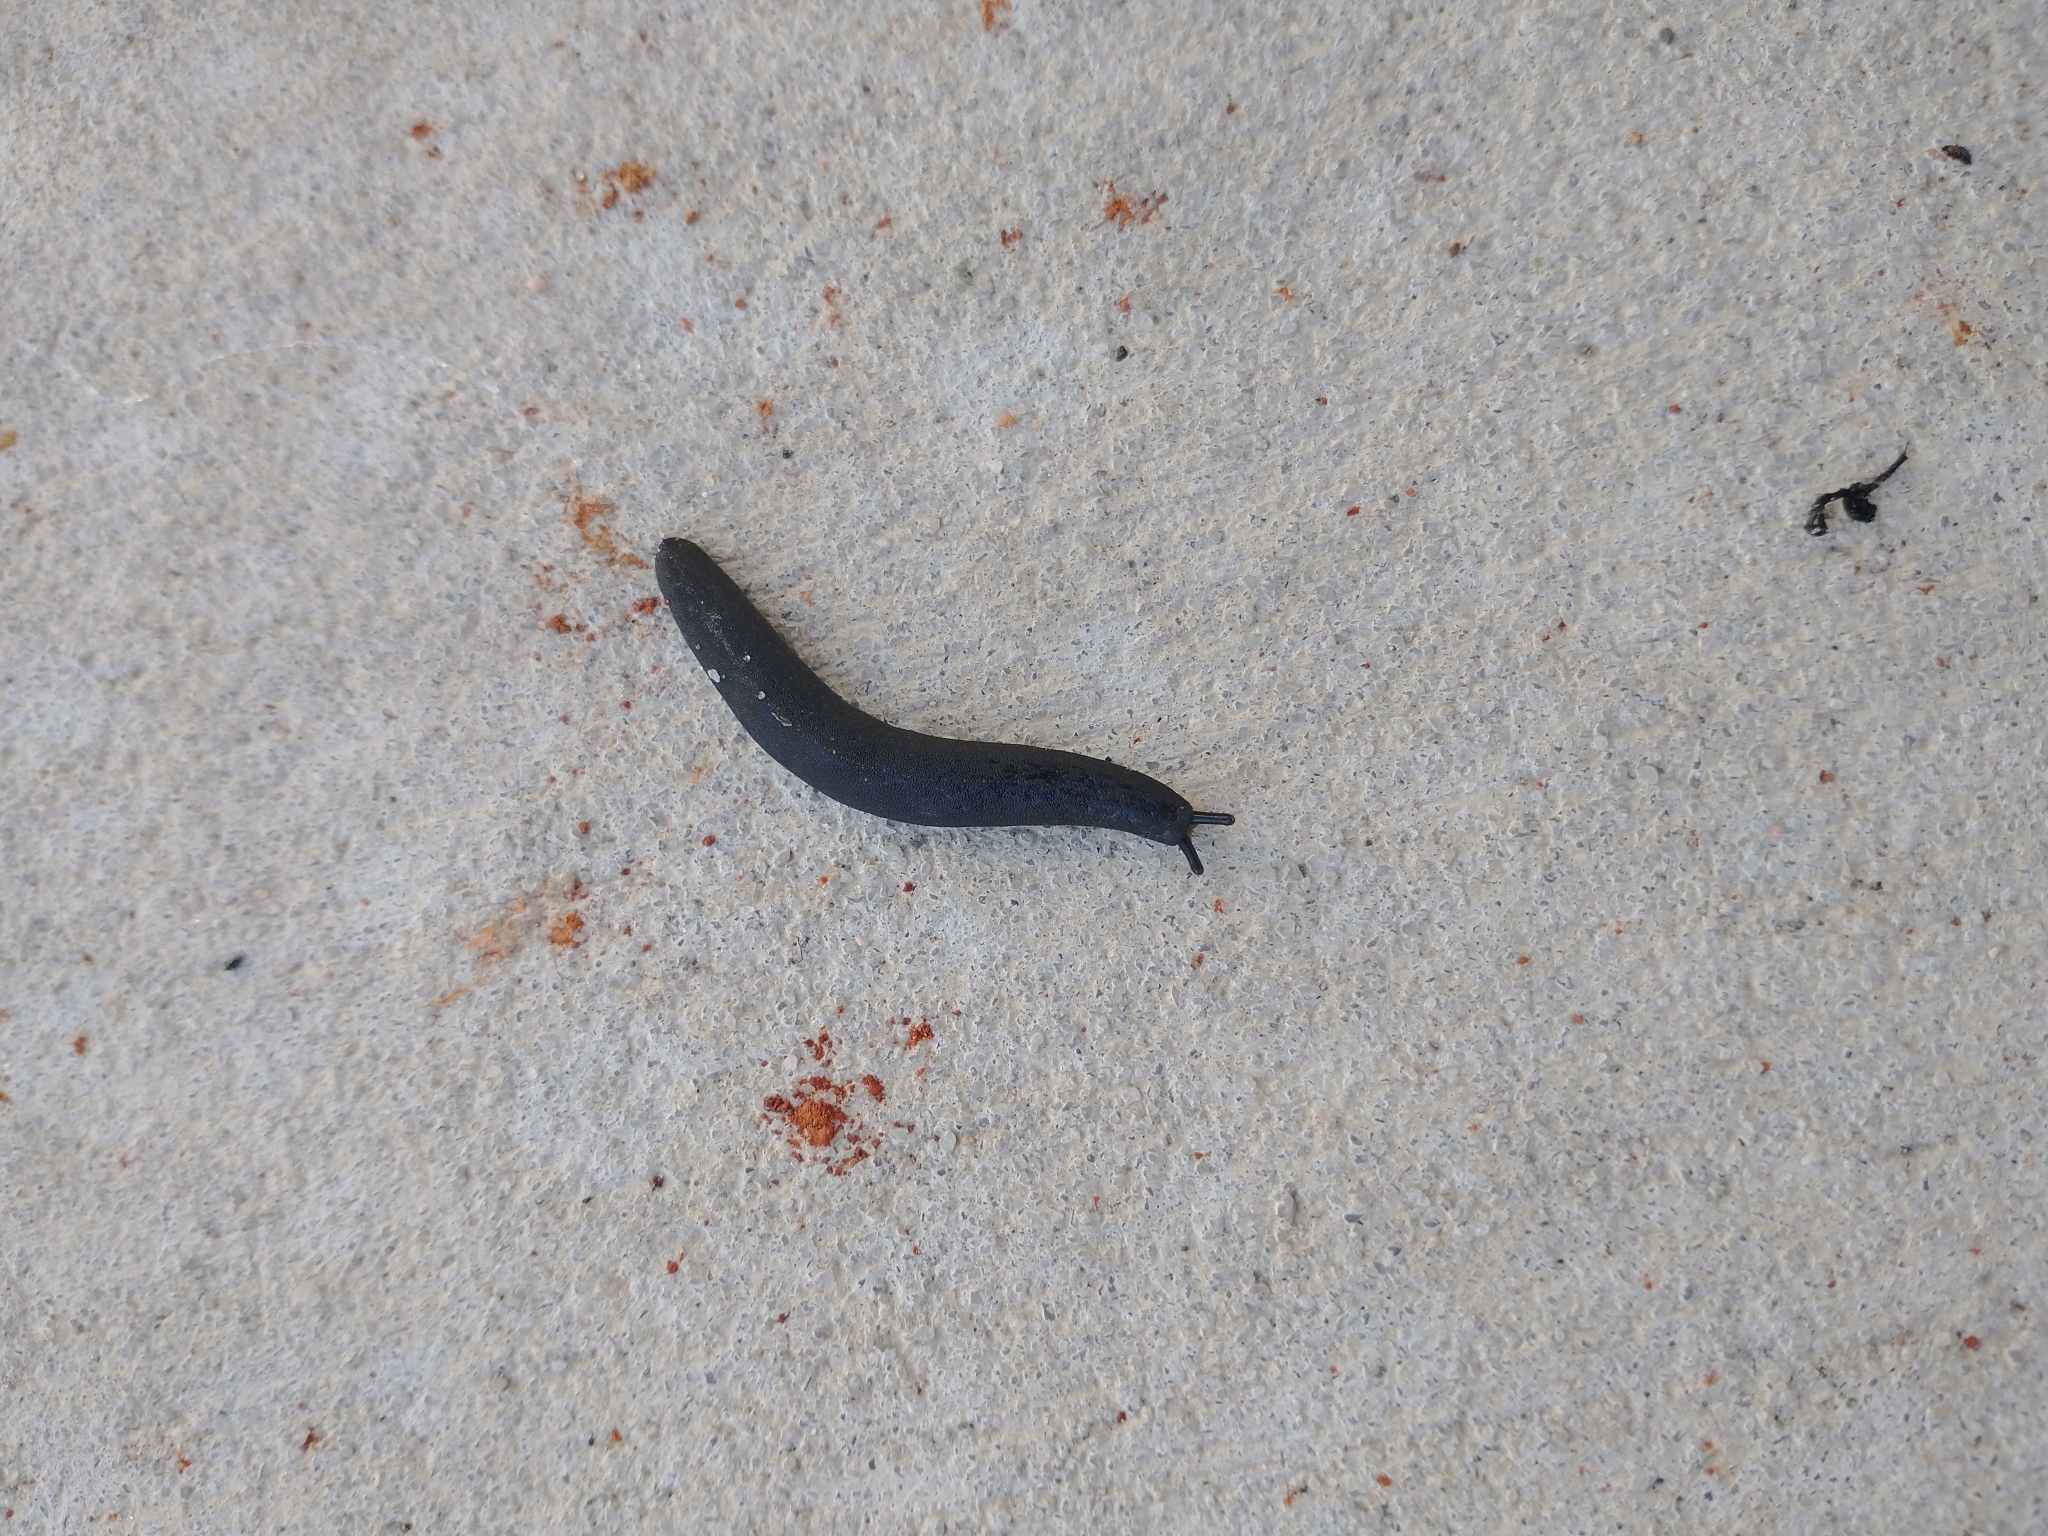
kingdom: Animalia
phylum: Mollusca
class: Gastropoda
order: Systellommatophora
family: Veronicellidae
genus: Belocaulus
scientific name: Belocaulus angustipes
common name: Black velvet leatherleaf slug
